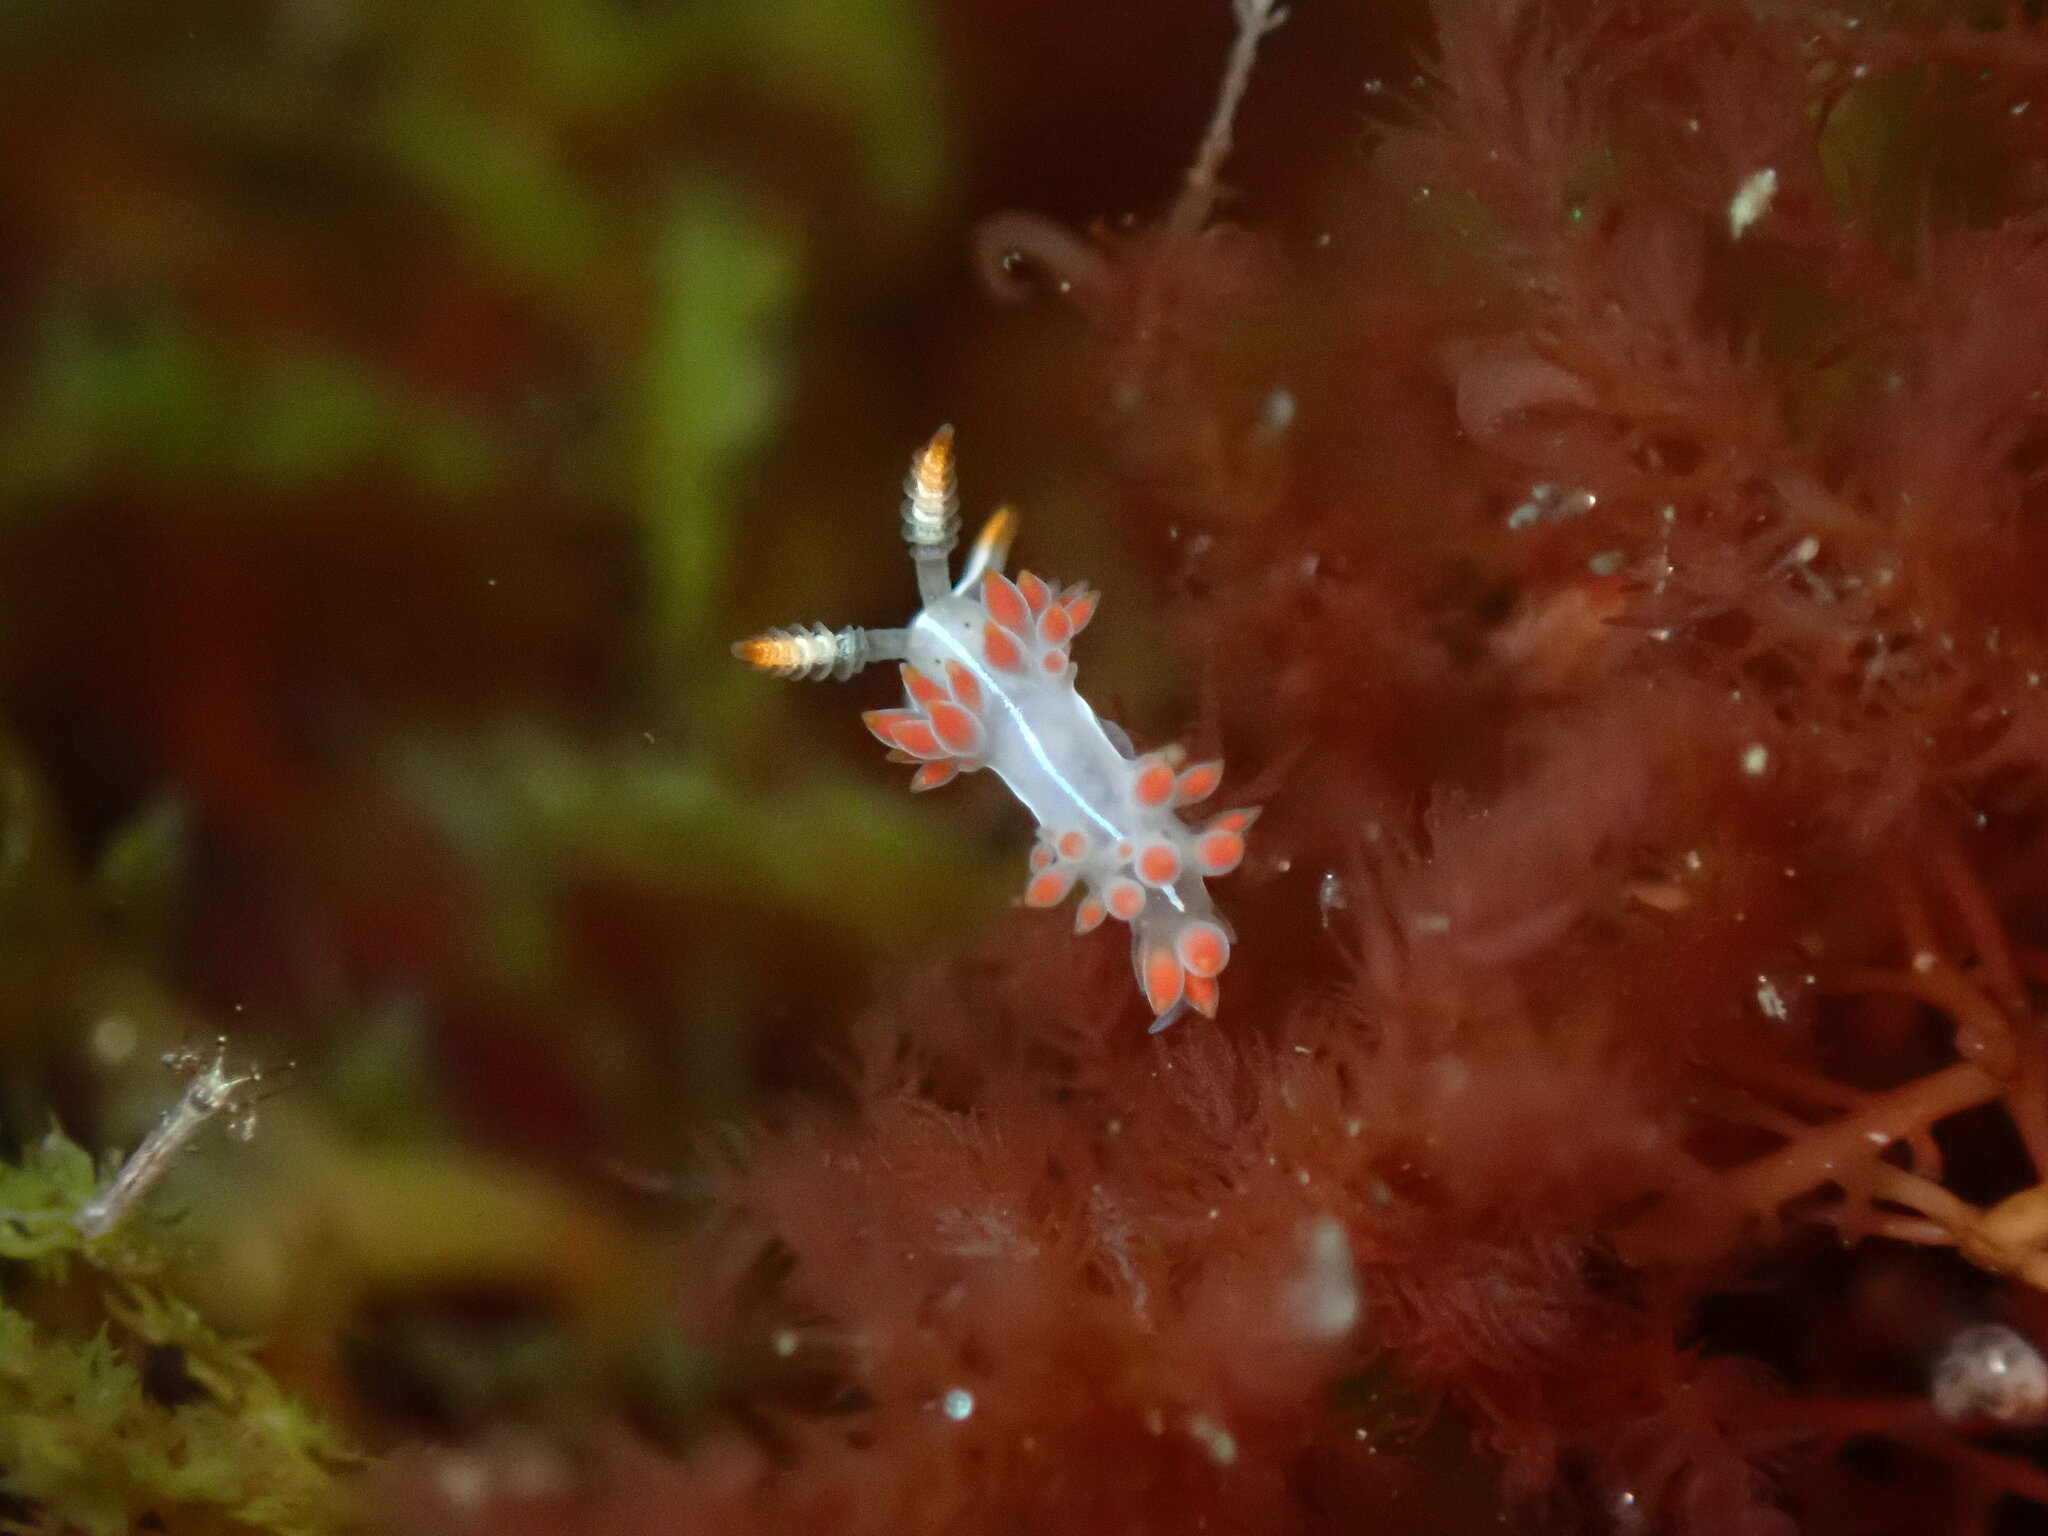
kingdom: Animalia
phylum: Mollusca
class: Gastropoda
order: Nudibranchia
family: Coryphellidae
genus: Coryphella
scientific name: Coryphella trilineata
